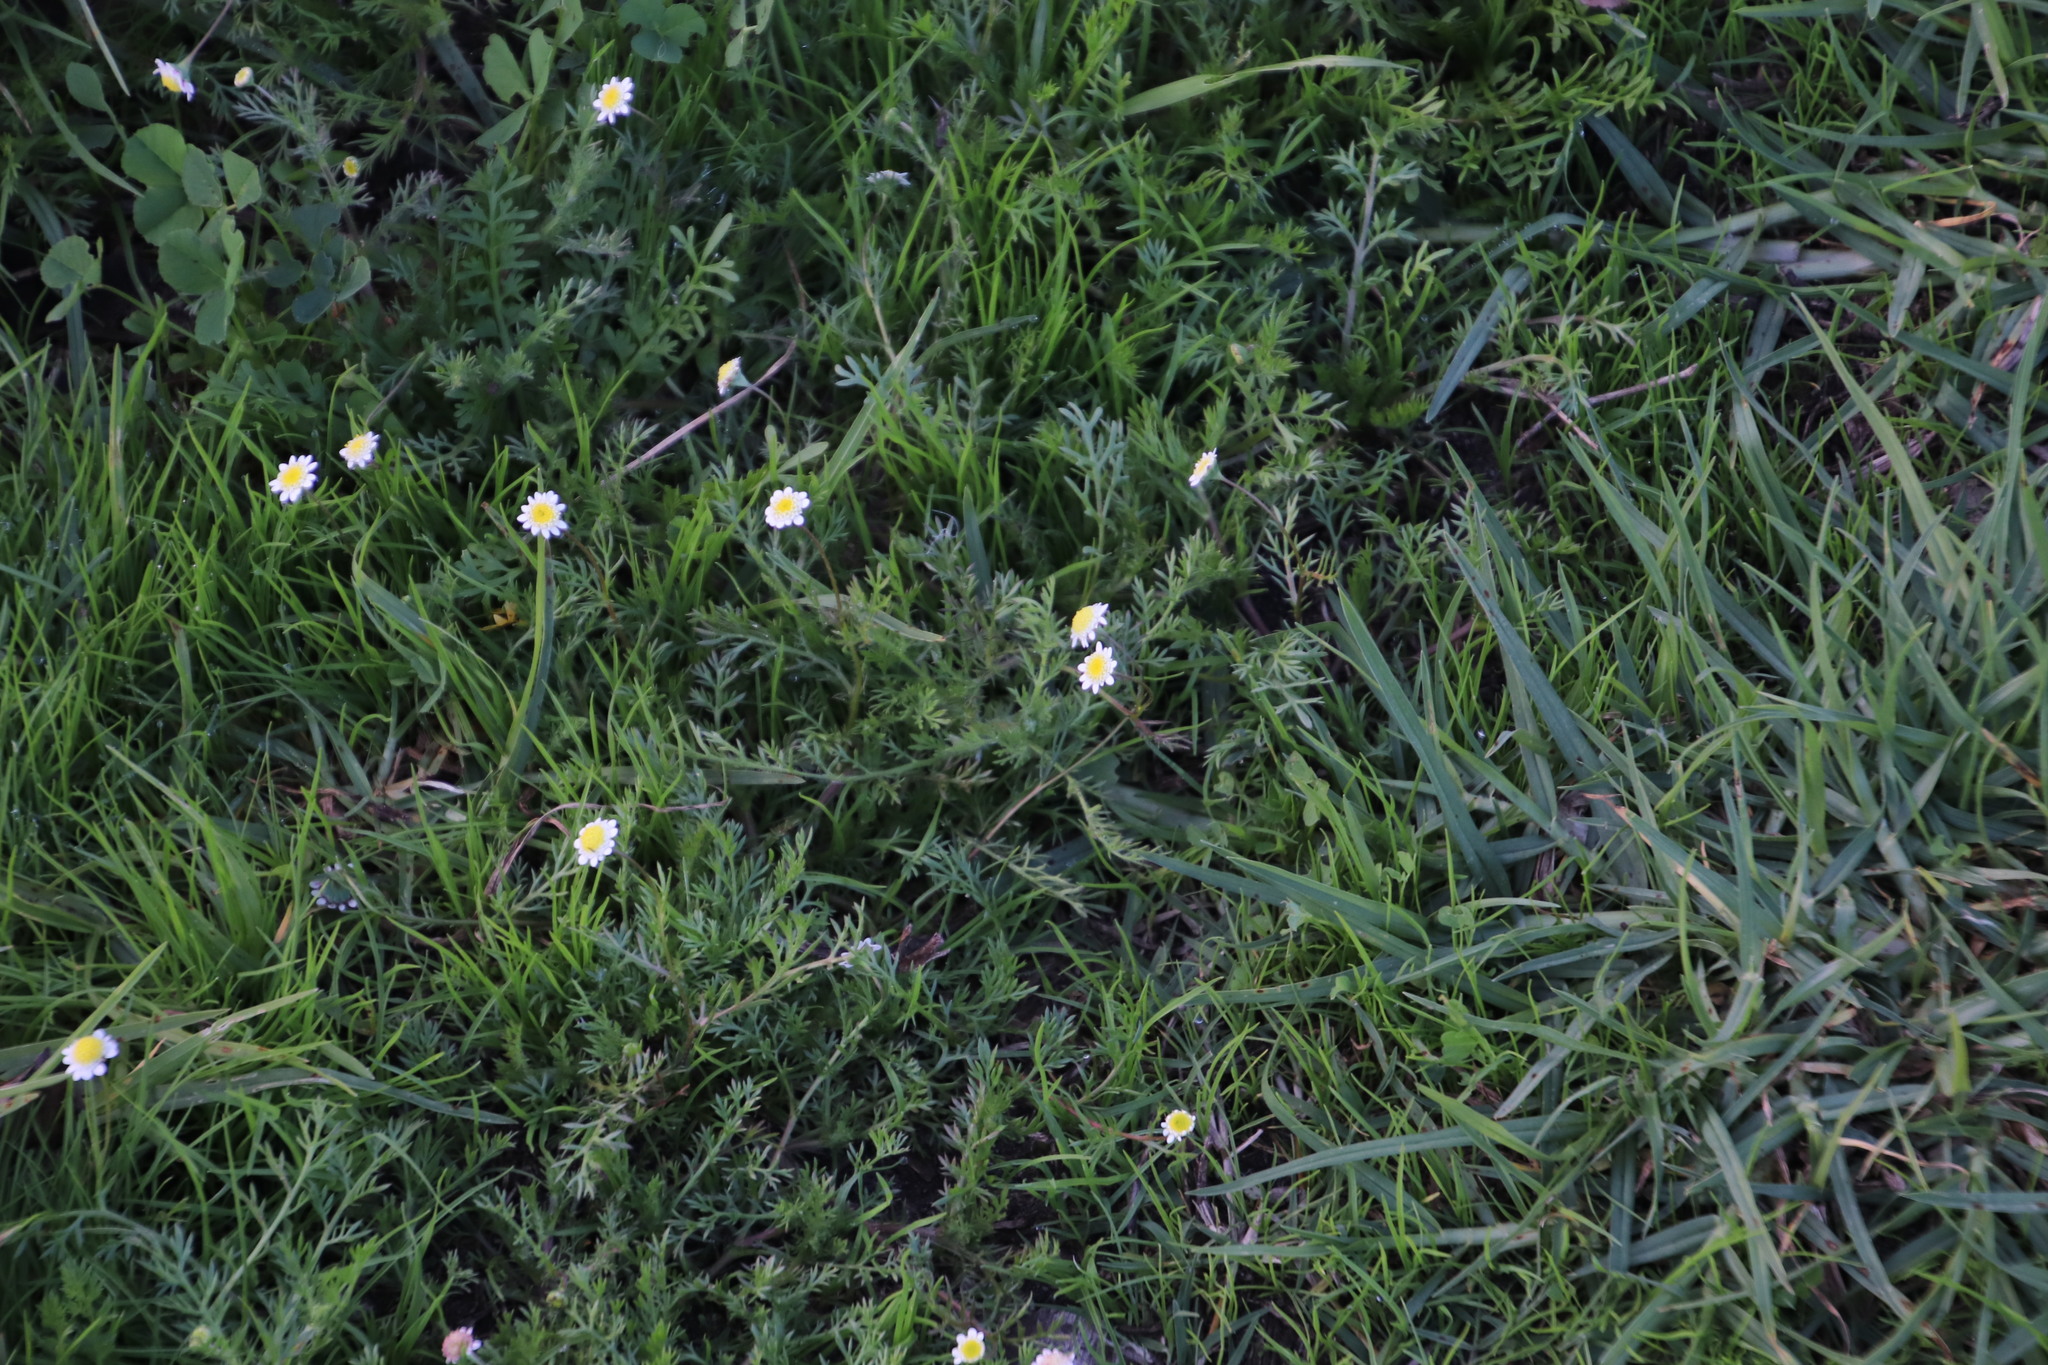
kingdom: Plantae
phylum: Tracheophyta
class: Magnoliopsida
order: Asterales
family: Asteraceae
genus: Cotula
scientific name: Cotula turbinata
